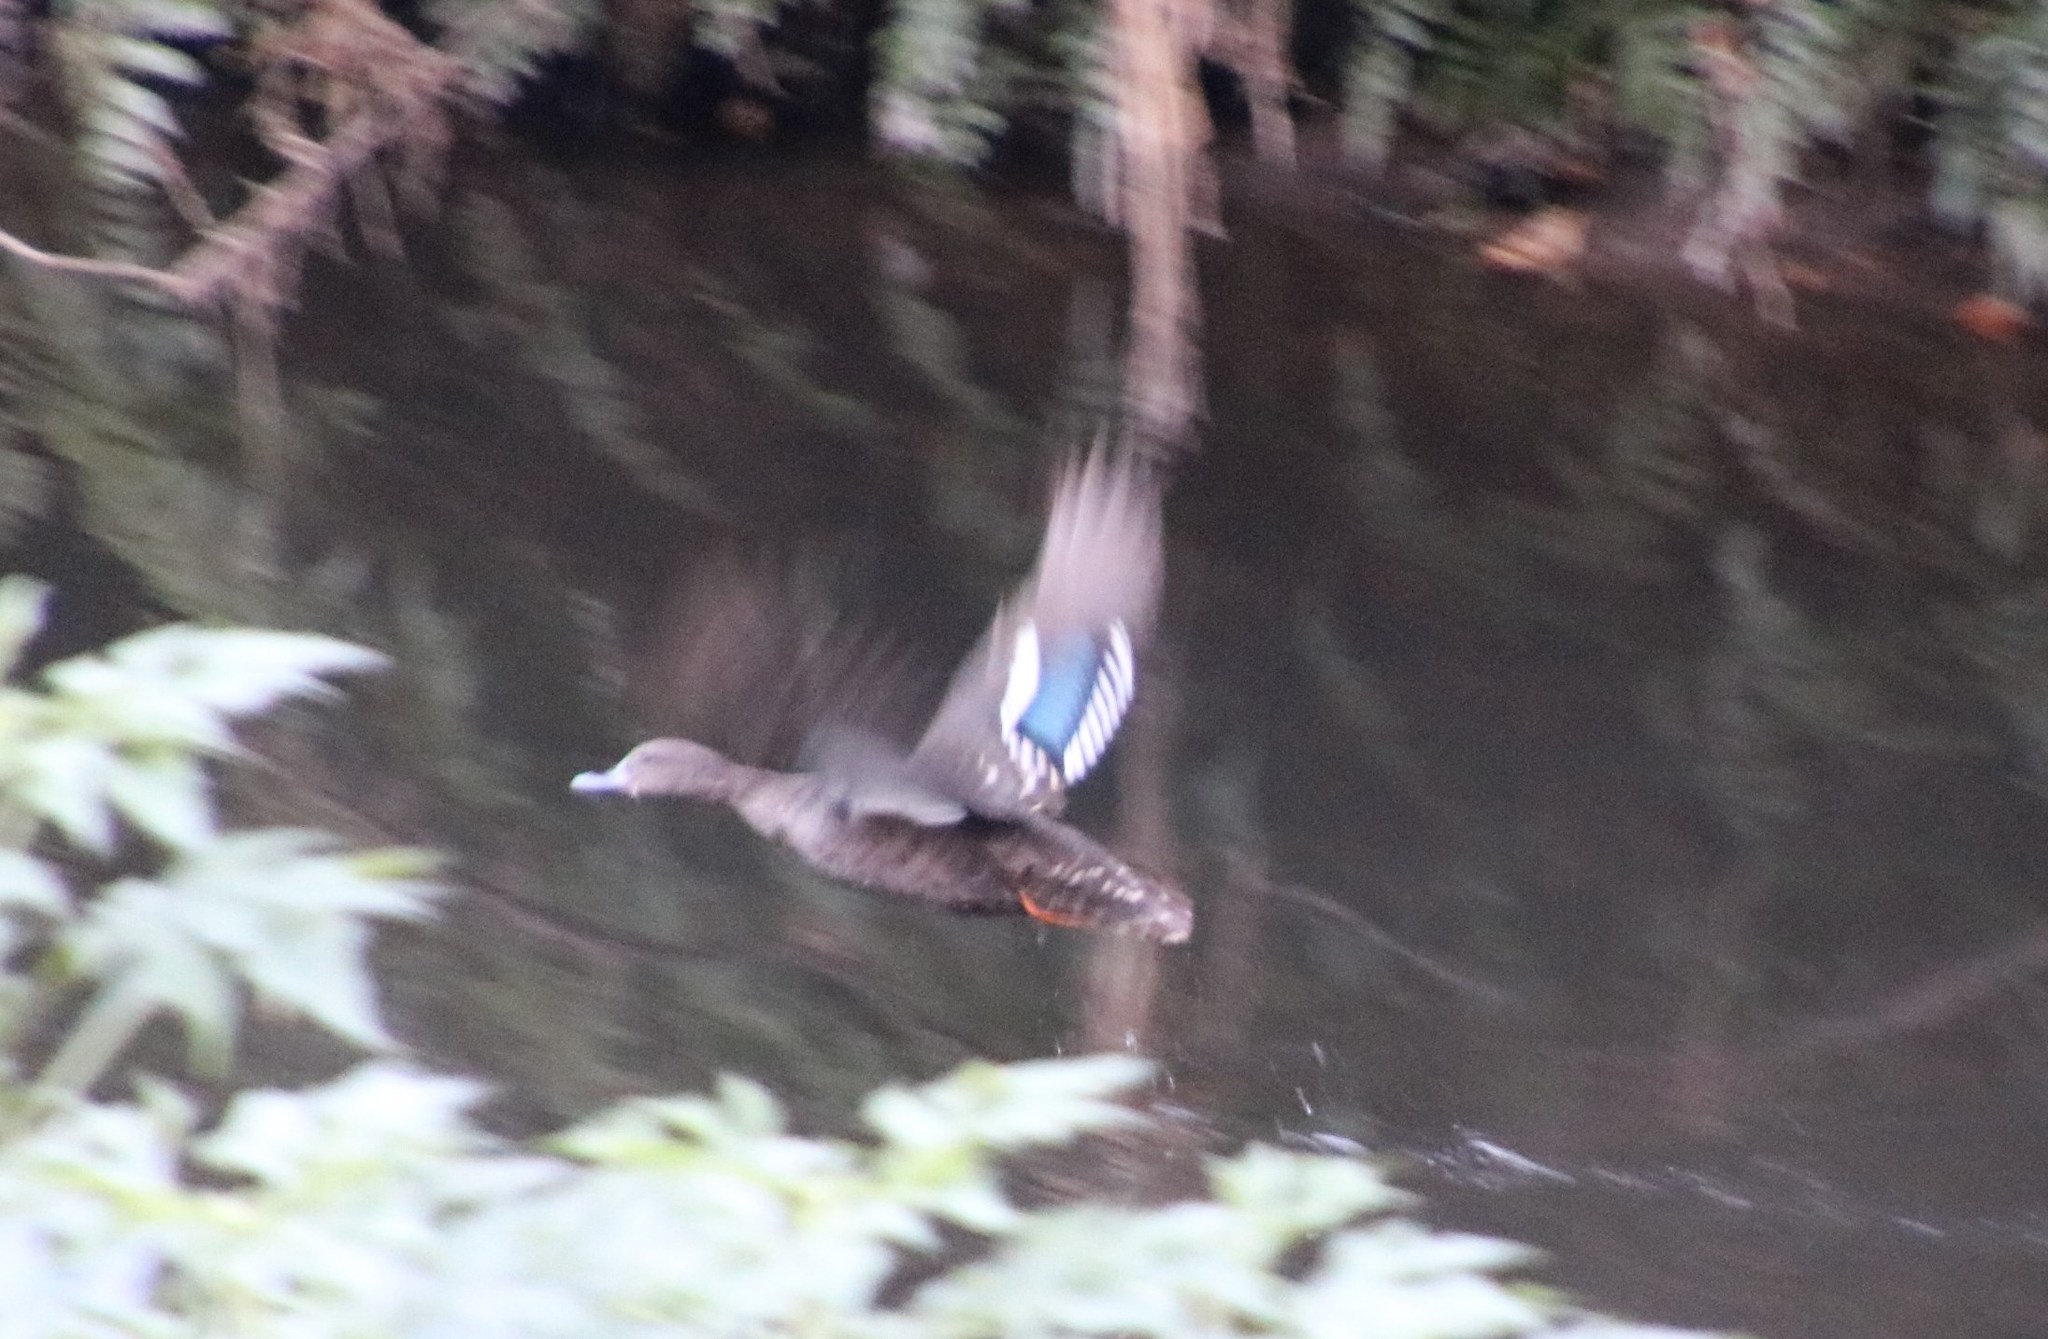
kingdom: Animalia
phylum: Chordata
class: Aves
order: Anseriformes
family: Anatidae
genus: Anas
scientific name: Anas sparsa
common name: African black duck
